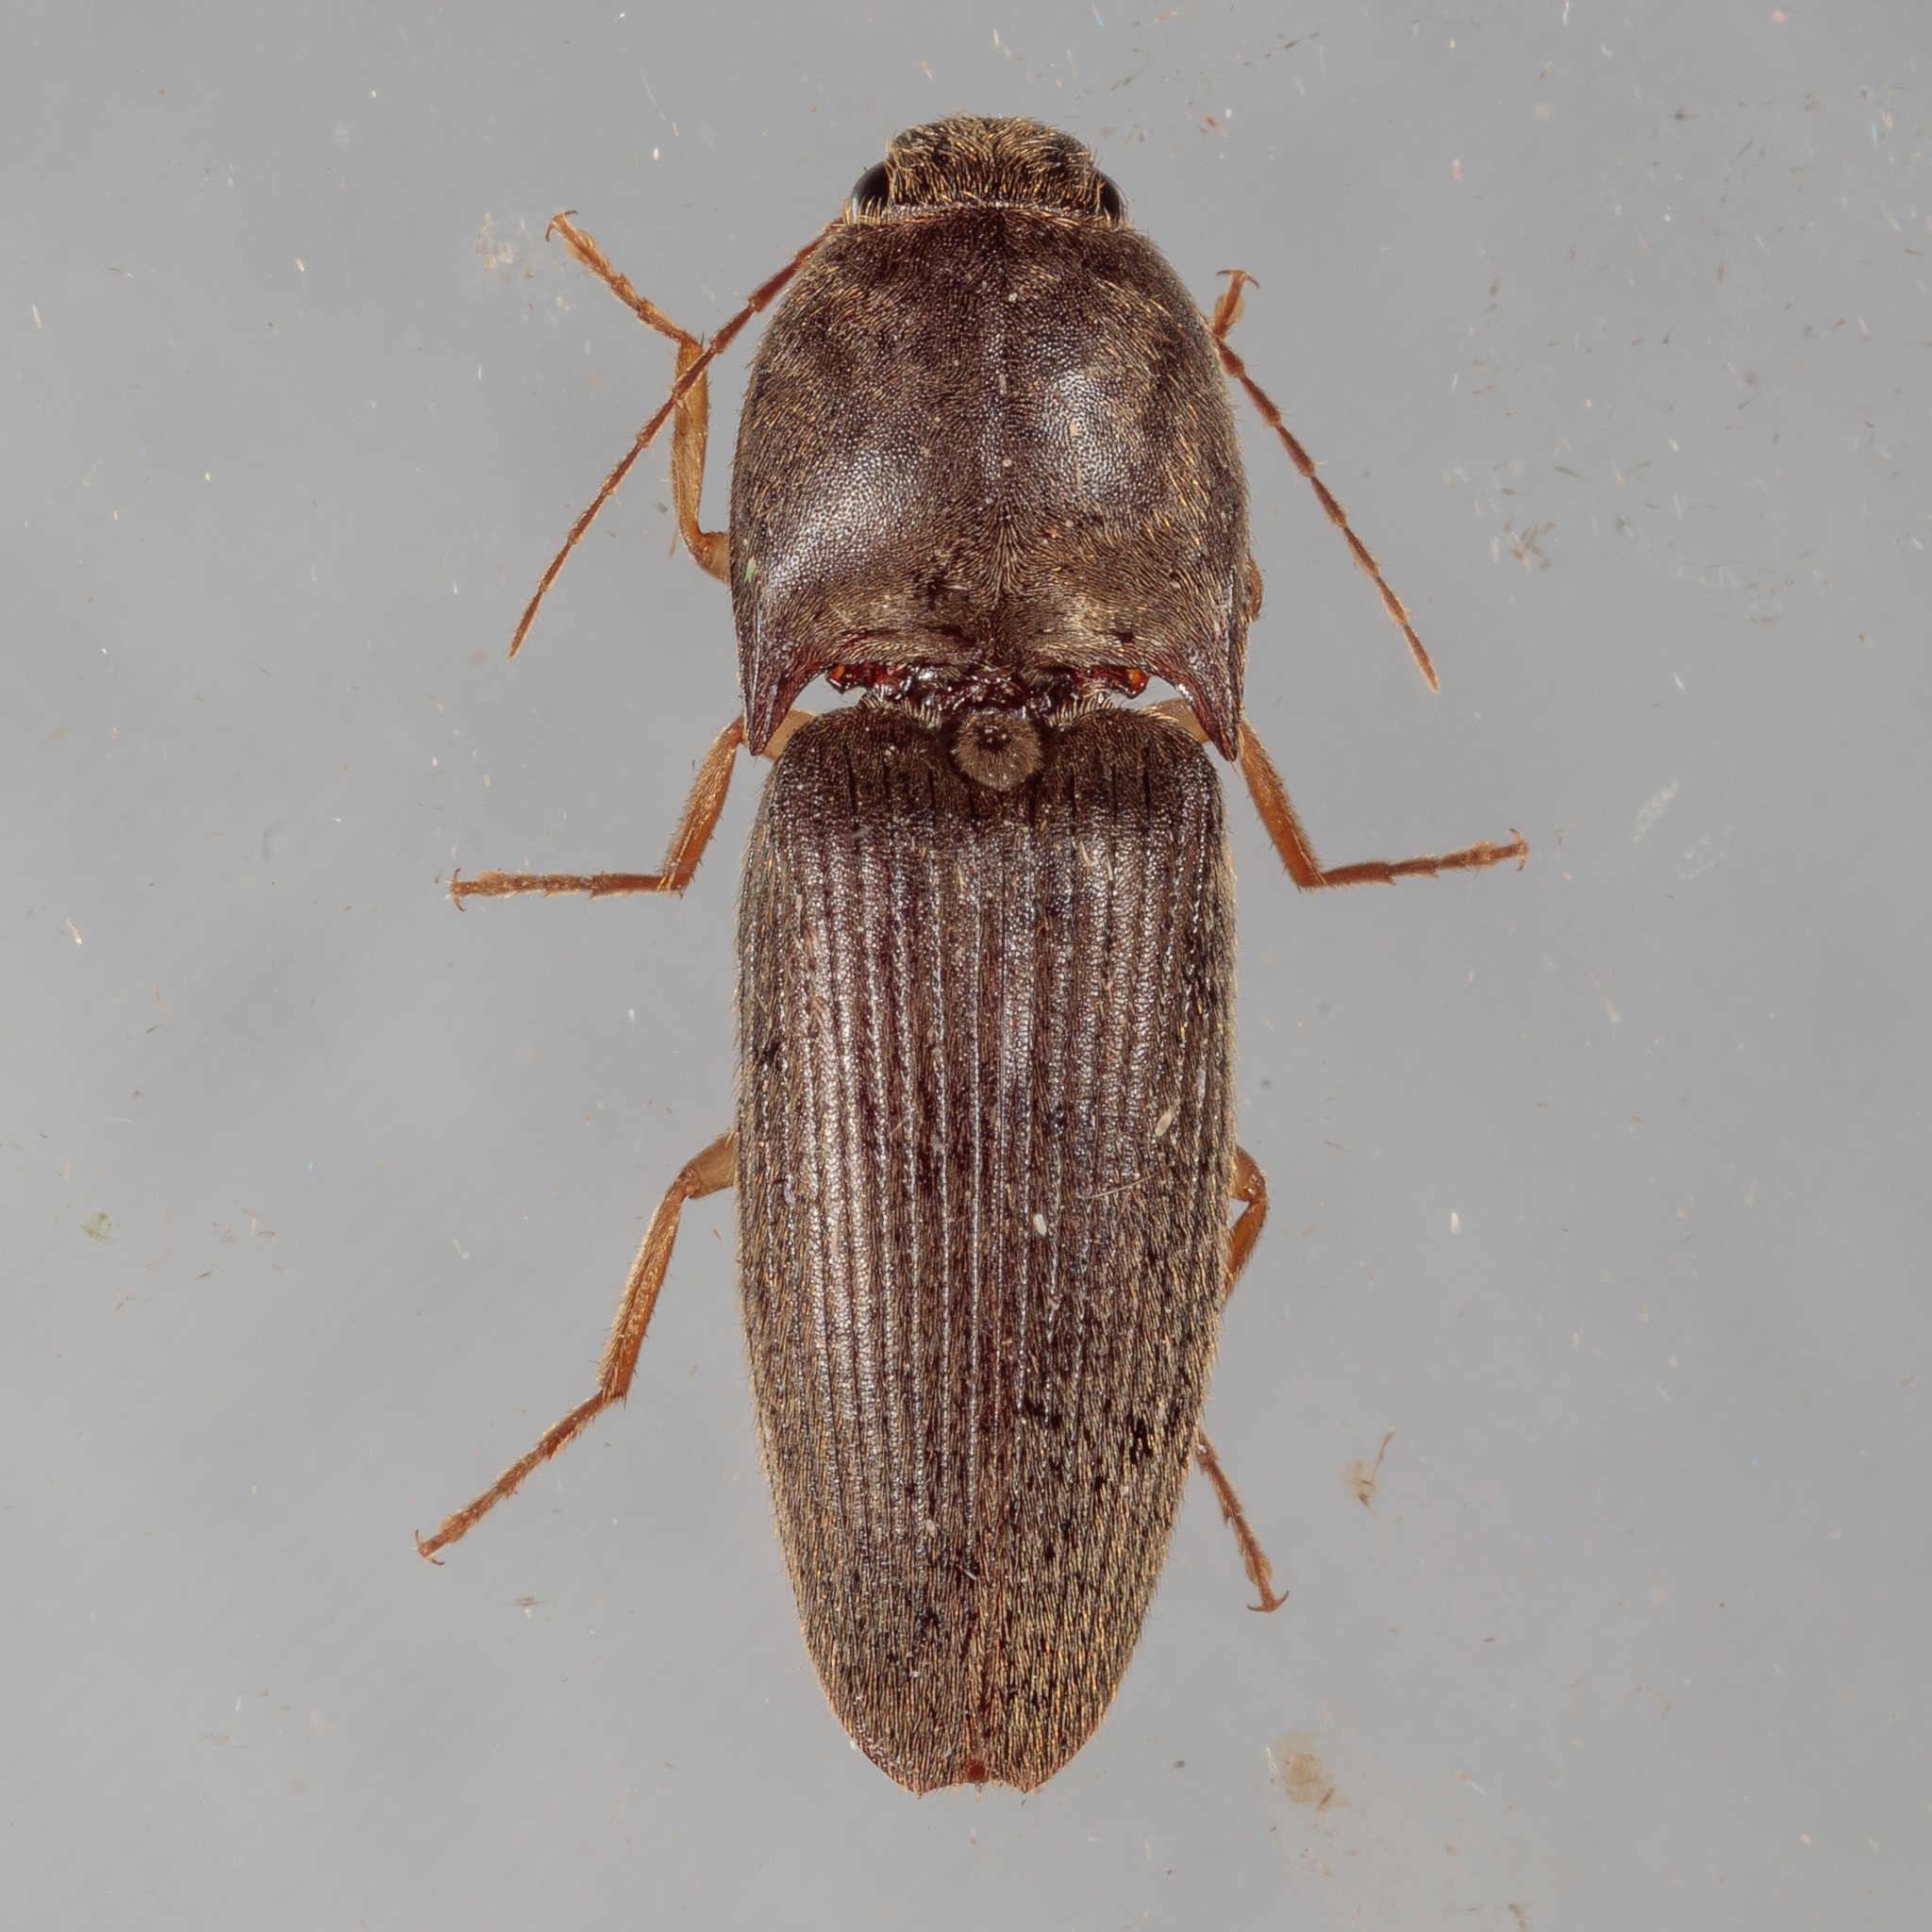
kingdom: Animalia
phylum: Arthropoda
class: Insecta
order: Coleoptera
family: Elateridae
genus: Conoderus
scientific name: Conoderus exsul
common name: Click beetle
